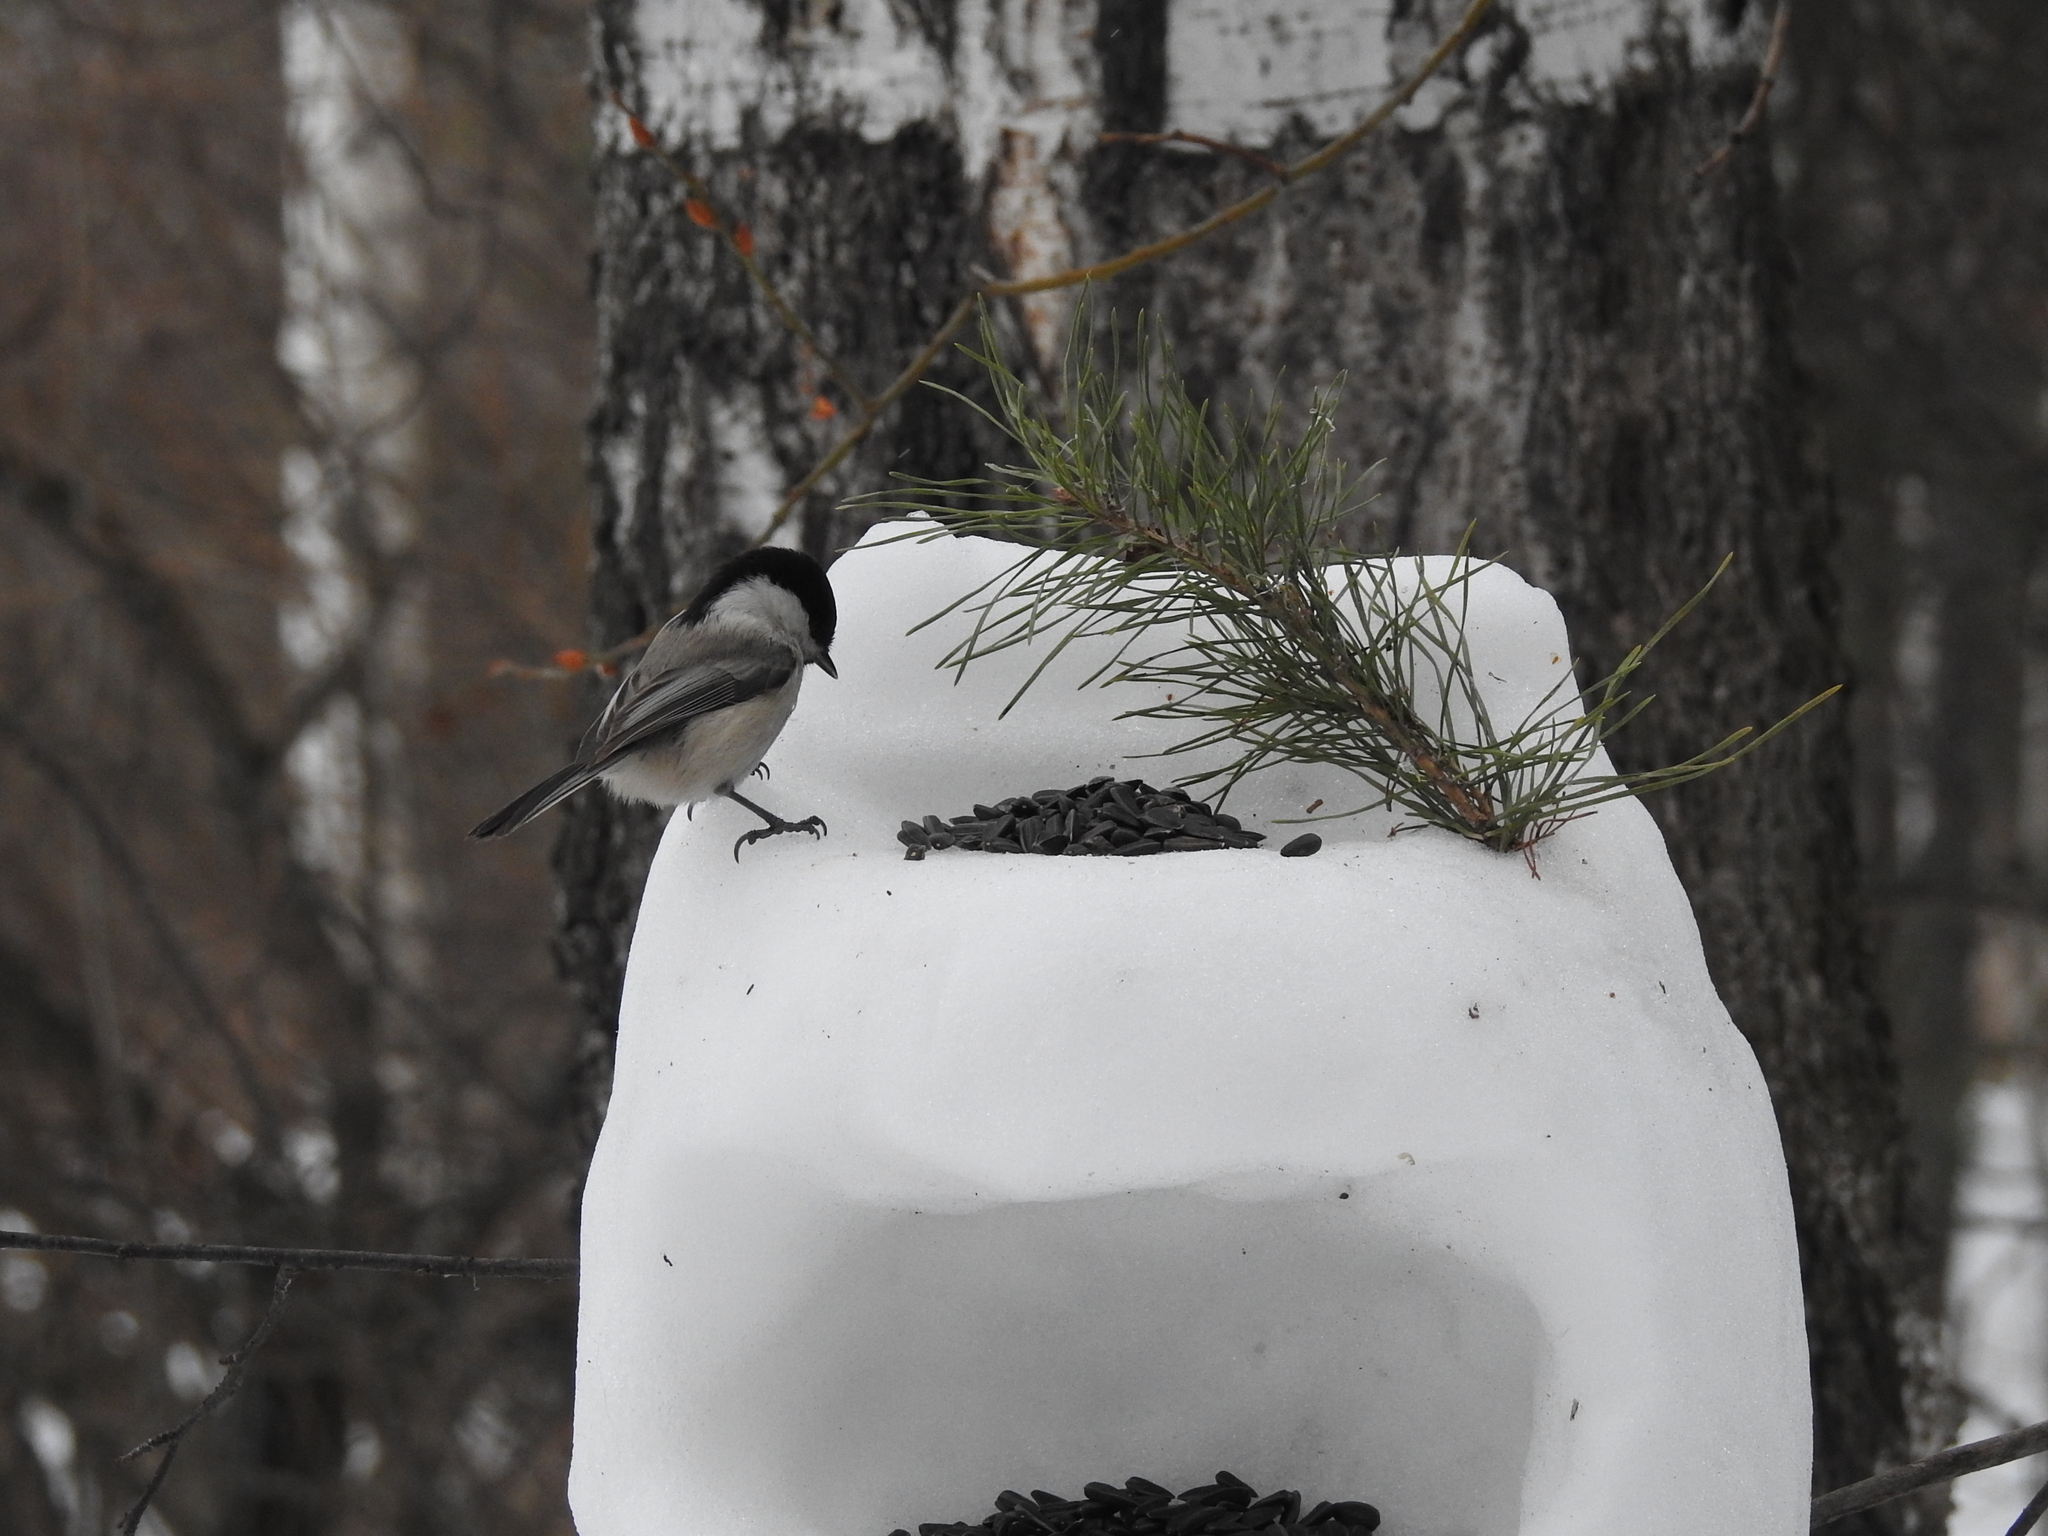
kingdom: Animalia
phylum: Chordata
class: Aves
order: Passeriformes
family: Paridae
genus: Poecile
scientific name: Poecile montanus
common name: Willow tit
